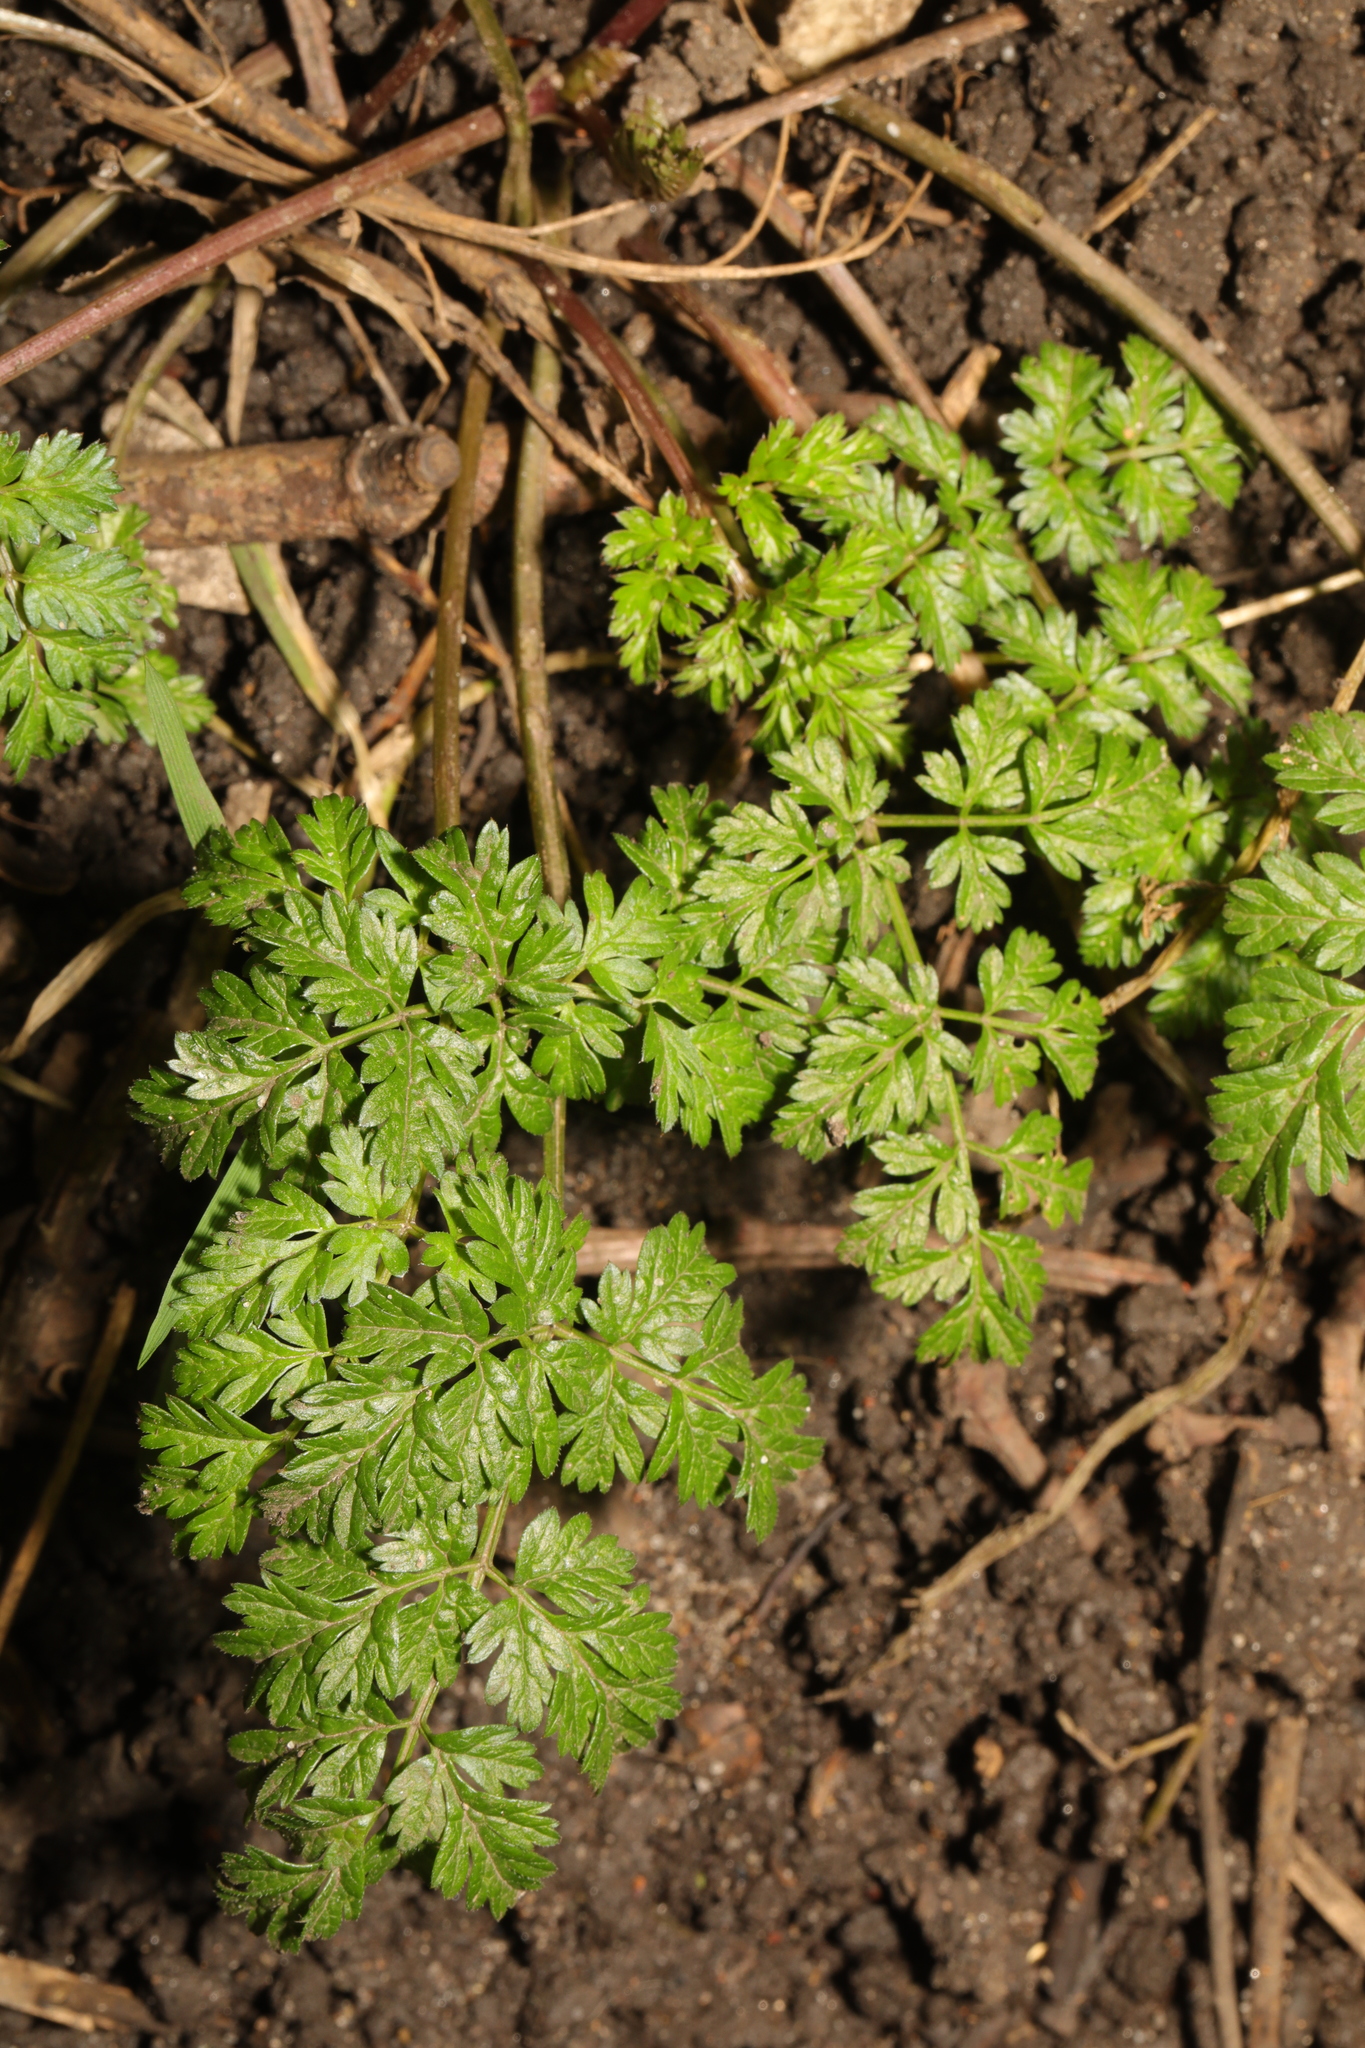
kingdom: Plantae
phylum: Tracheophyta
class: Magnoliopsida
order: Apiales
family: Apiaceae
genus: Anthriscus
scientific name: Anthriscus sylvestris
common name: Cow parsley
